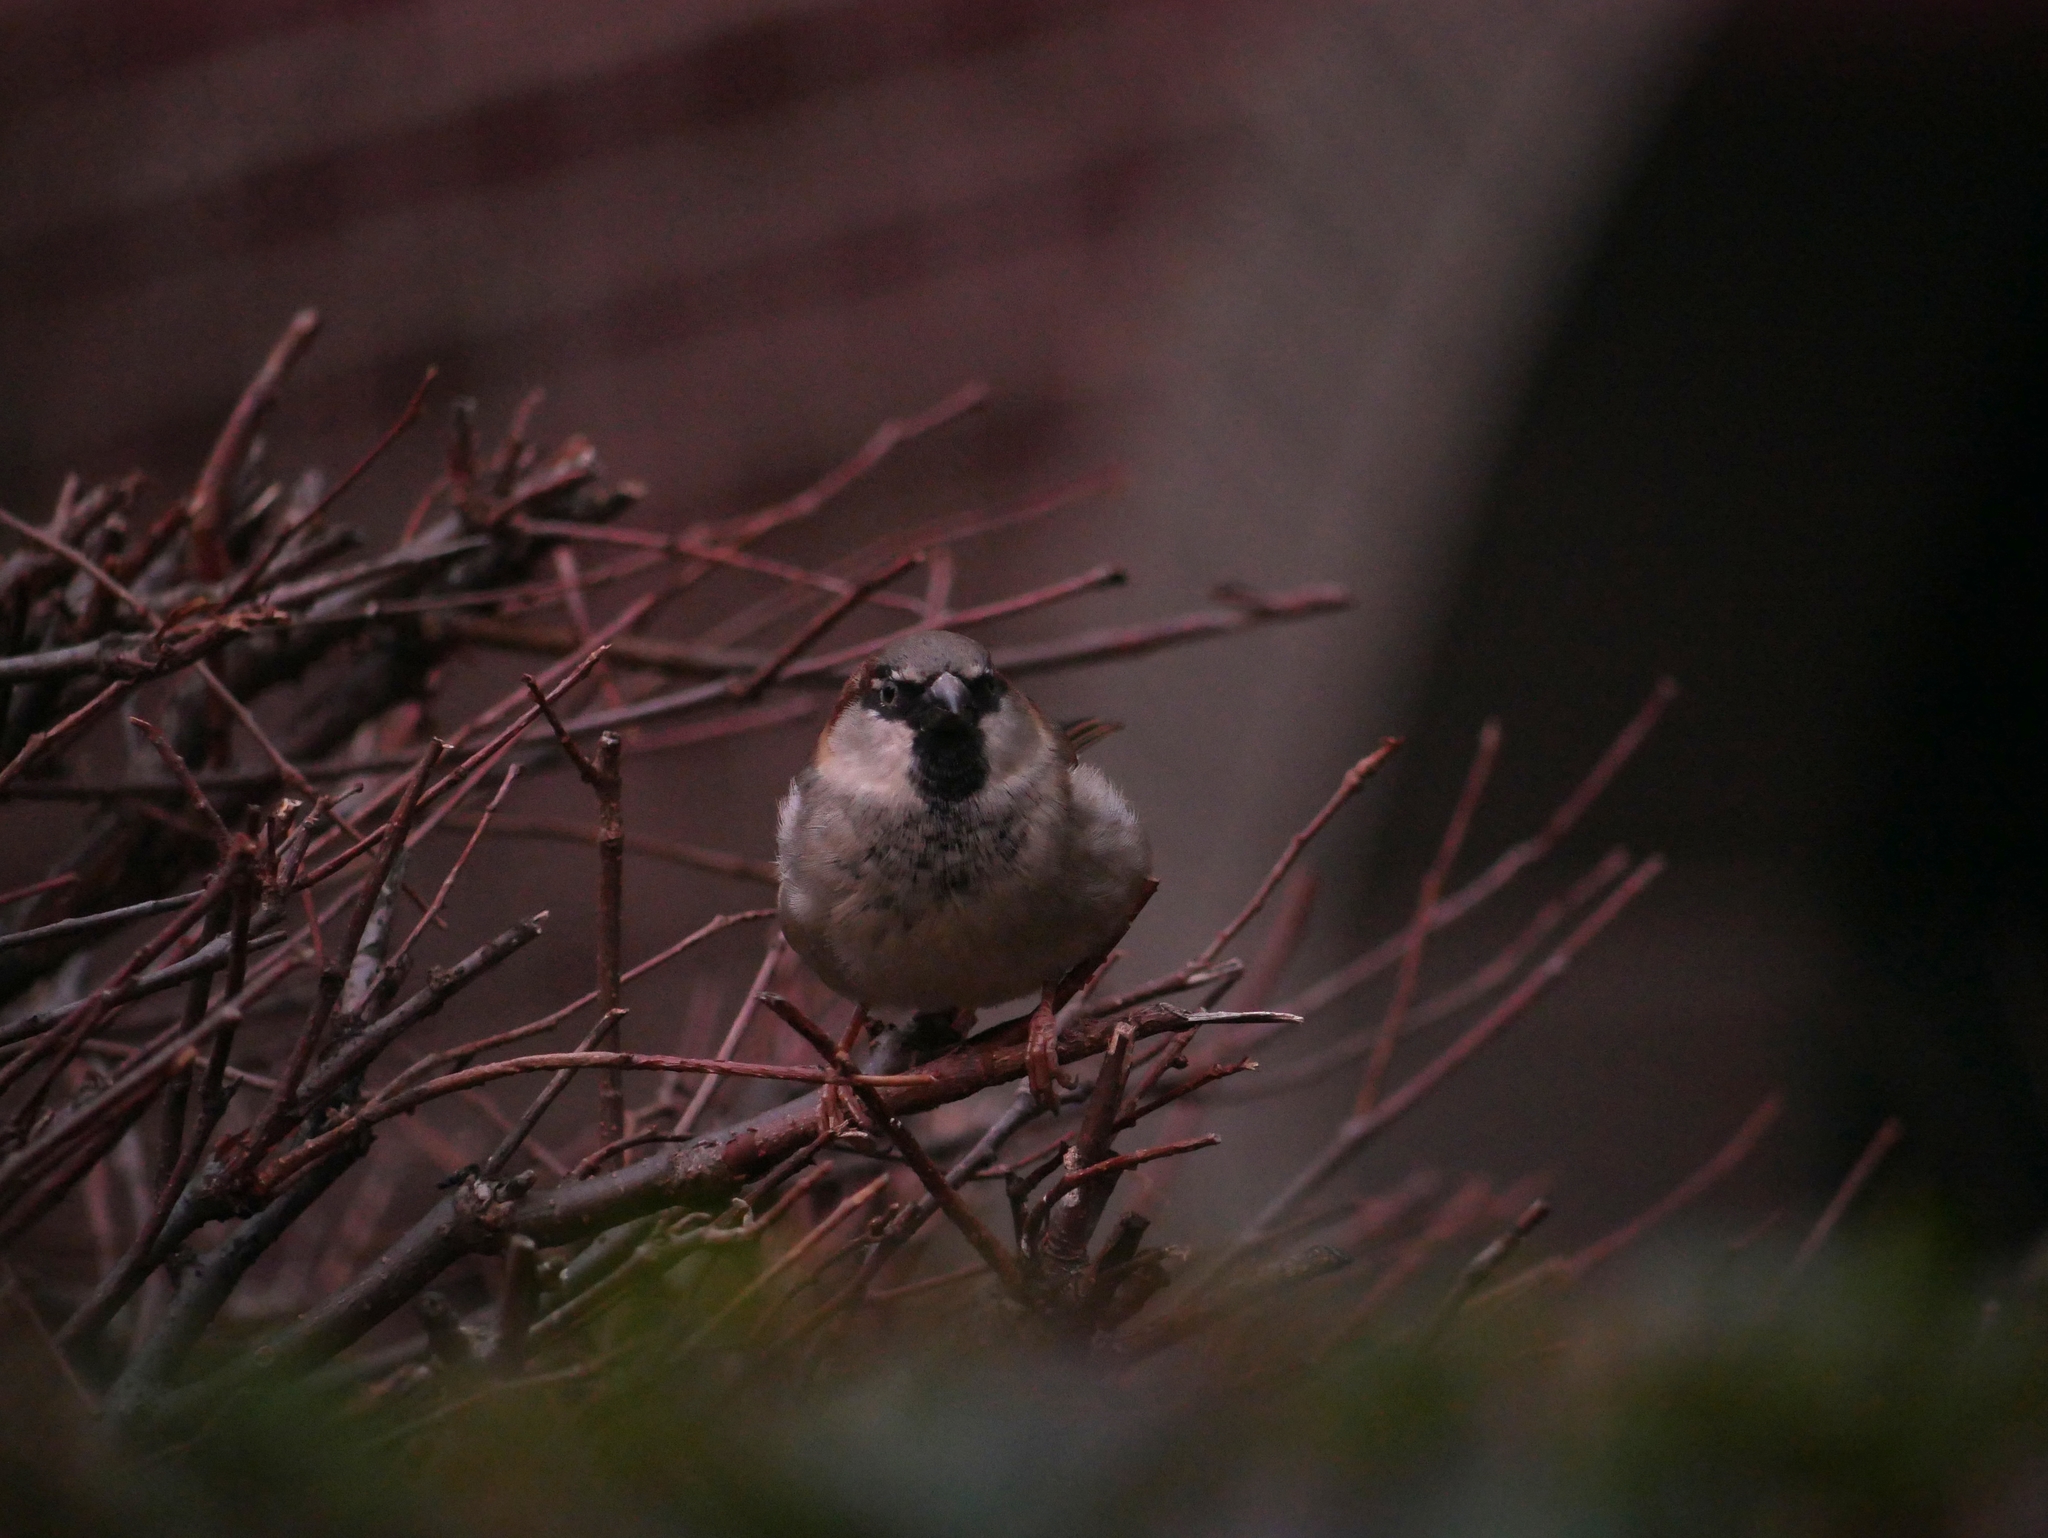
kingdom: Animalia
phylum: Chordata
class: Aves
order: Passeriformes
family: Passeridae
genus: Passer
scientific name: Passer domesticus
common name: House sparrow
